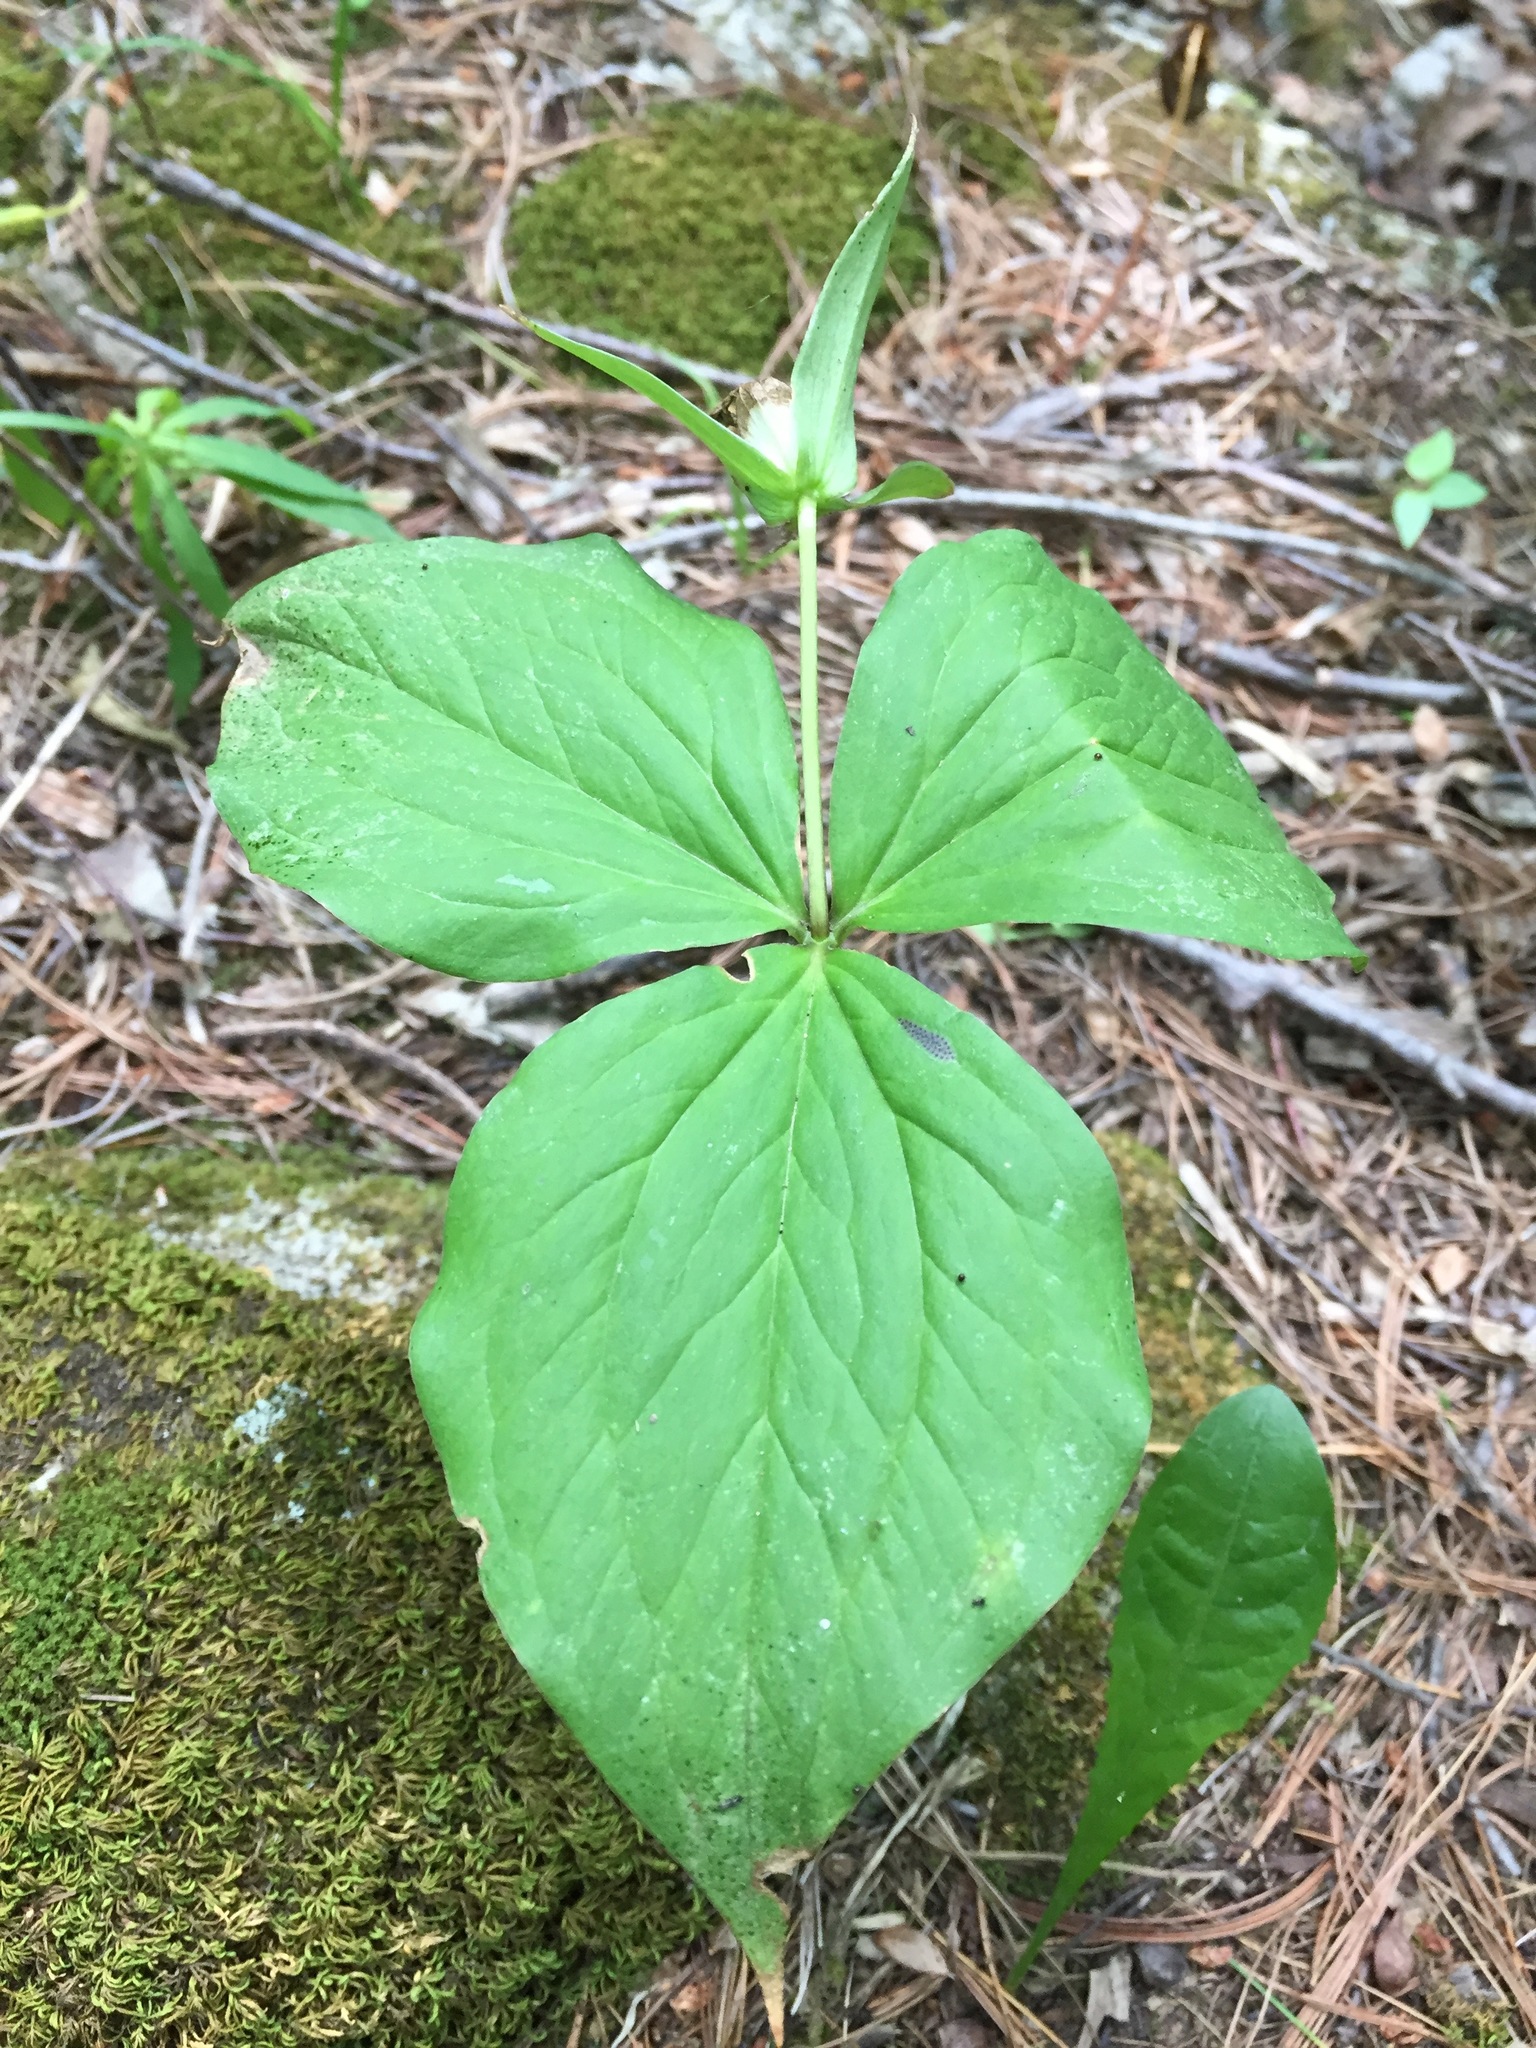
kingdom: Plantae
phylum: Tracheophyta
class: Liliopsida
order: Liliales
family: Melanthiaceae
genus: Trillium
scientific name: Trillium grandiflorum
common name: Great white trillium
